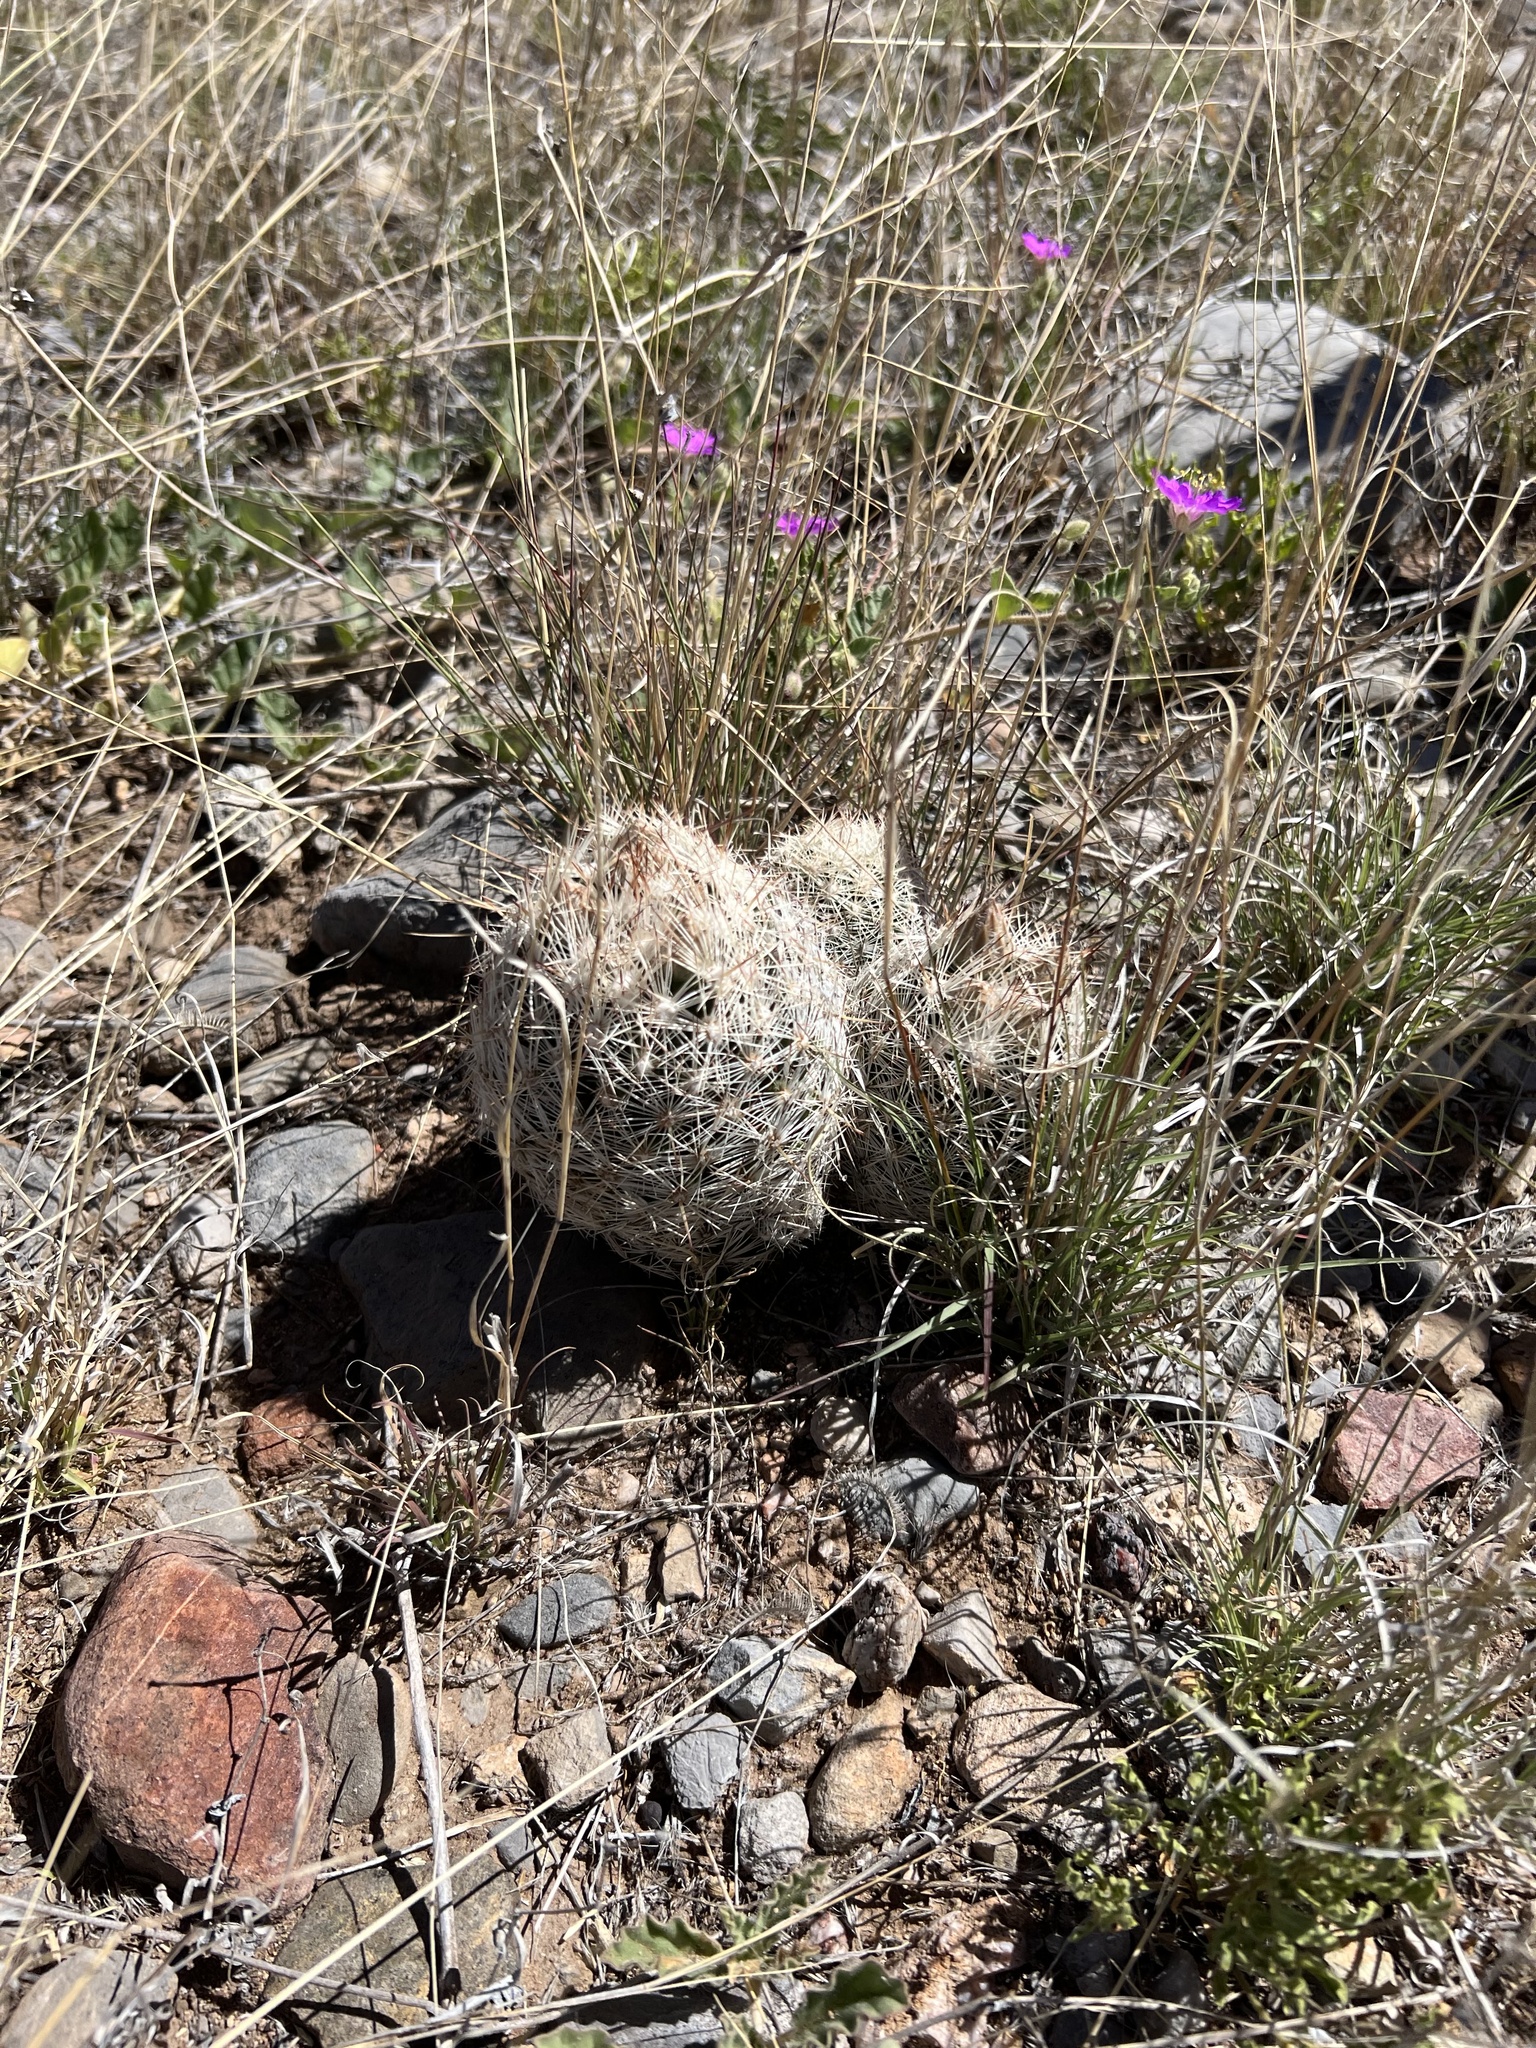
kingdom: Plantae
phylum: Tracheophyta
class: Magnoliopsida
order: Caryophyllales
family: Cactaceae
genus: Pelecyphora
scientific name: Pelecyphora vivipara
